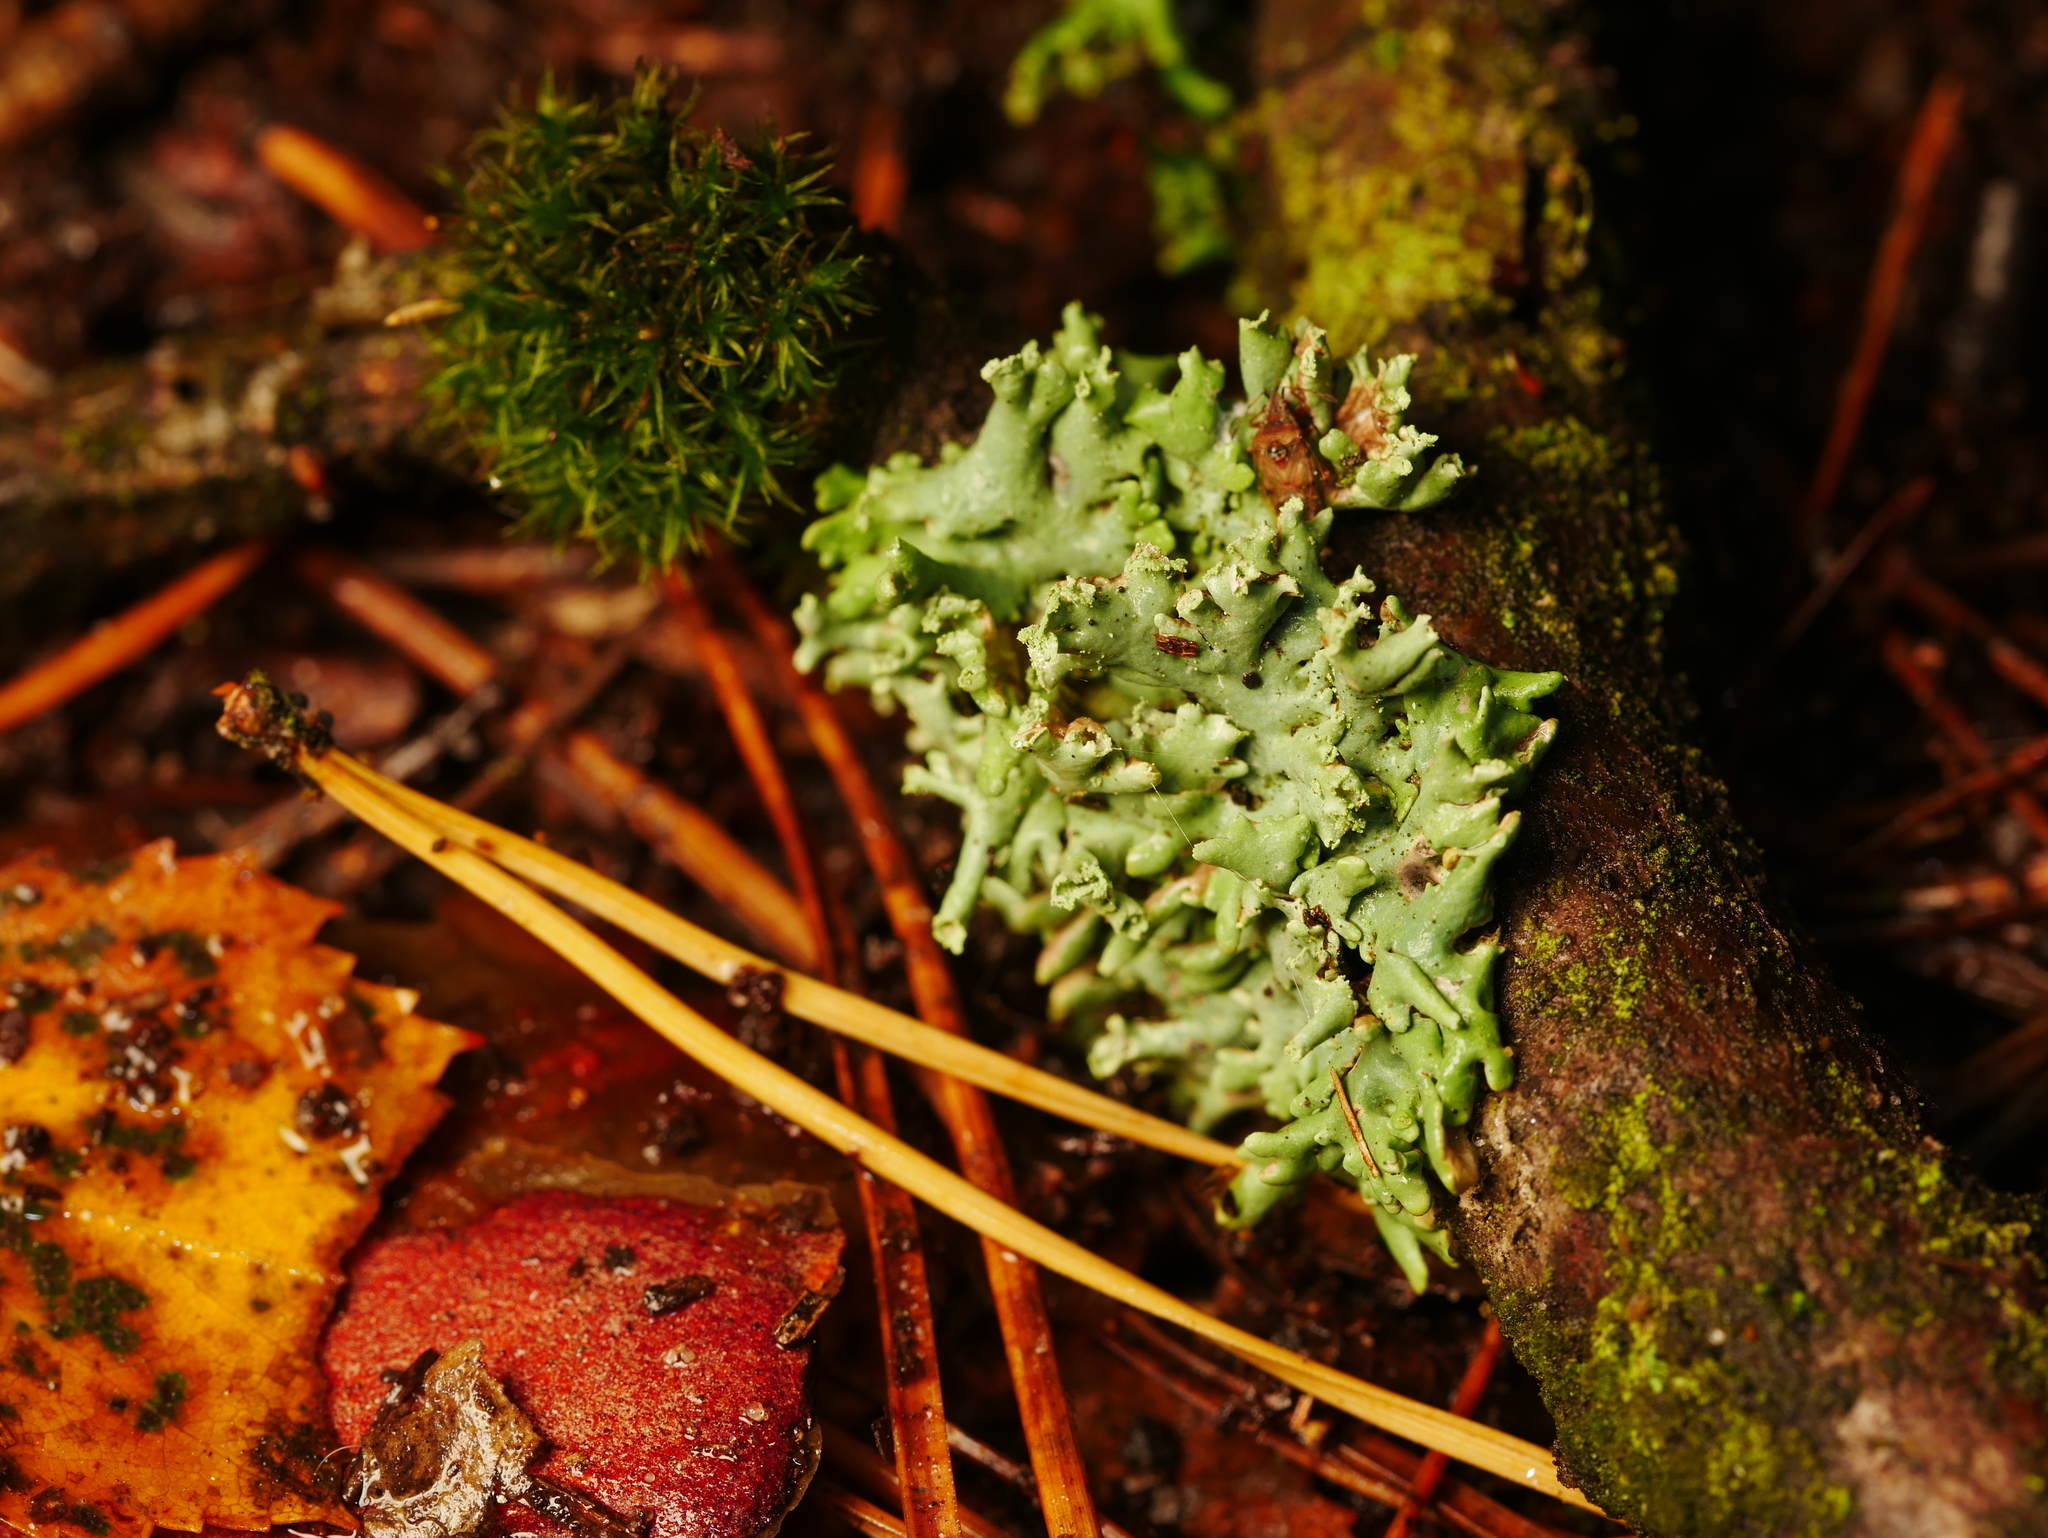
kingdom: Fungi
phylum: Ascomycota
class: Lecanoromycetes
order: Lecanorales
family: Parmeliaceae
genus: Hypogymnia
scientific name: Hypogymnia physodes
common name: Dark crottle
